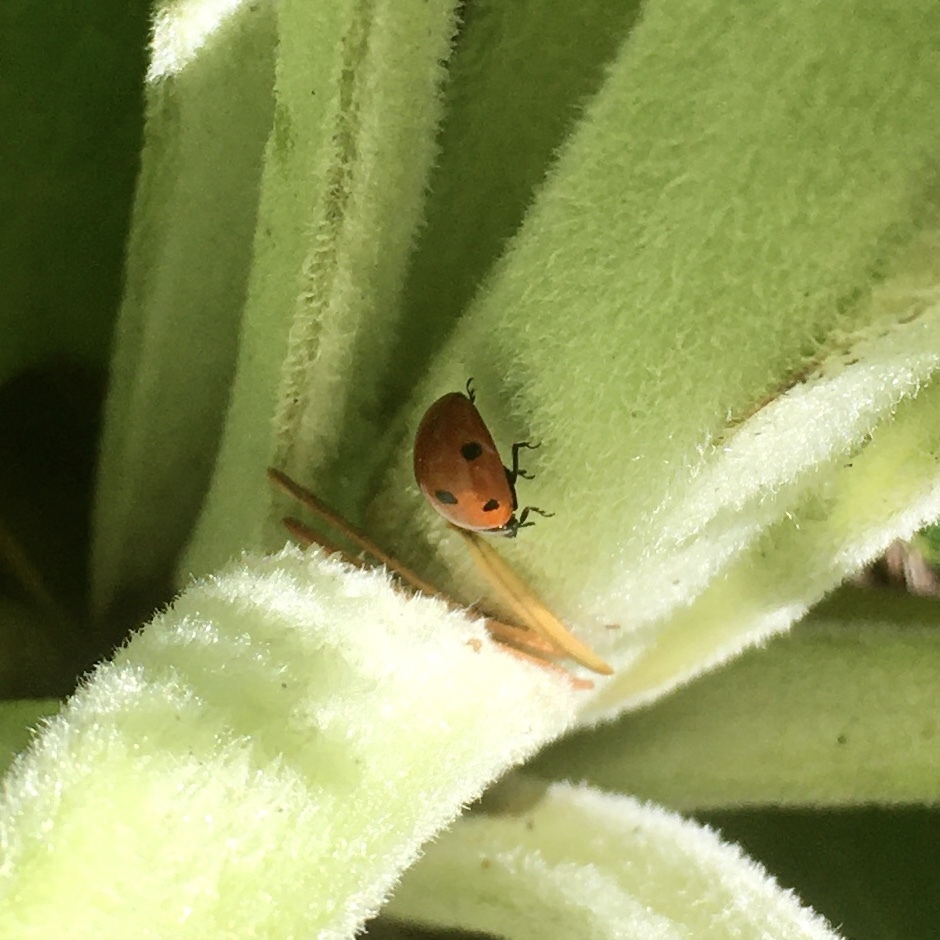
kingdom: Animalia
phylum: Arthropoda
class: Insecta
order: Coleoptera
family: Coccinellidae
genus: Coccinella
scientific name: Coccinella septempunctata
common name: Sevenspotted lady beetle
